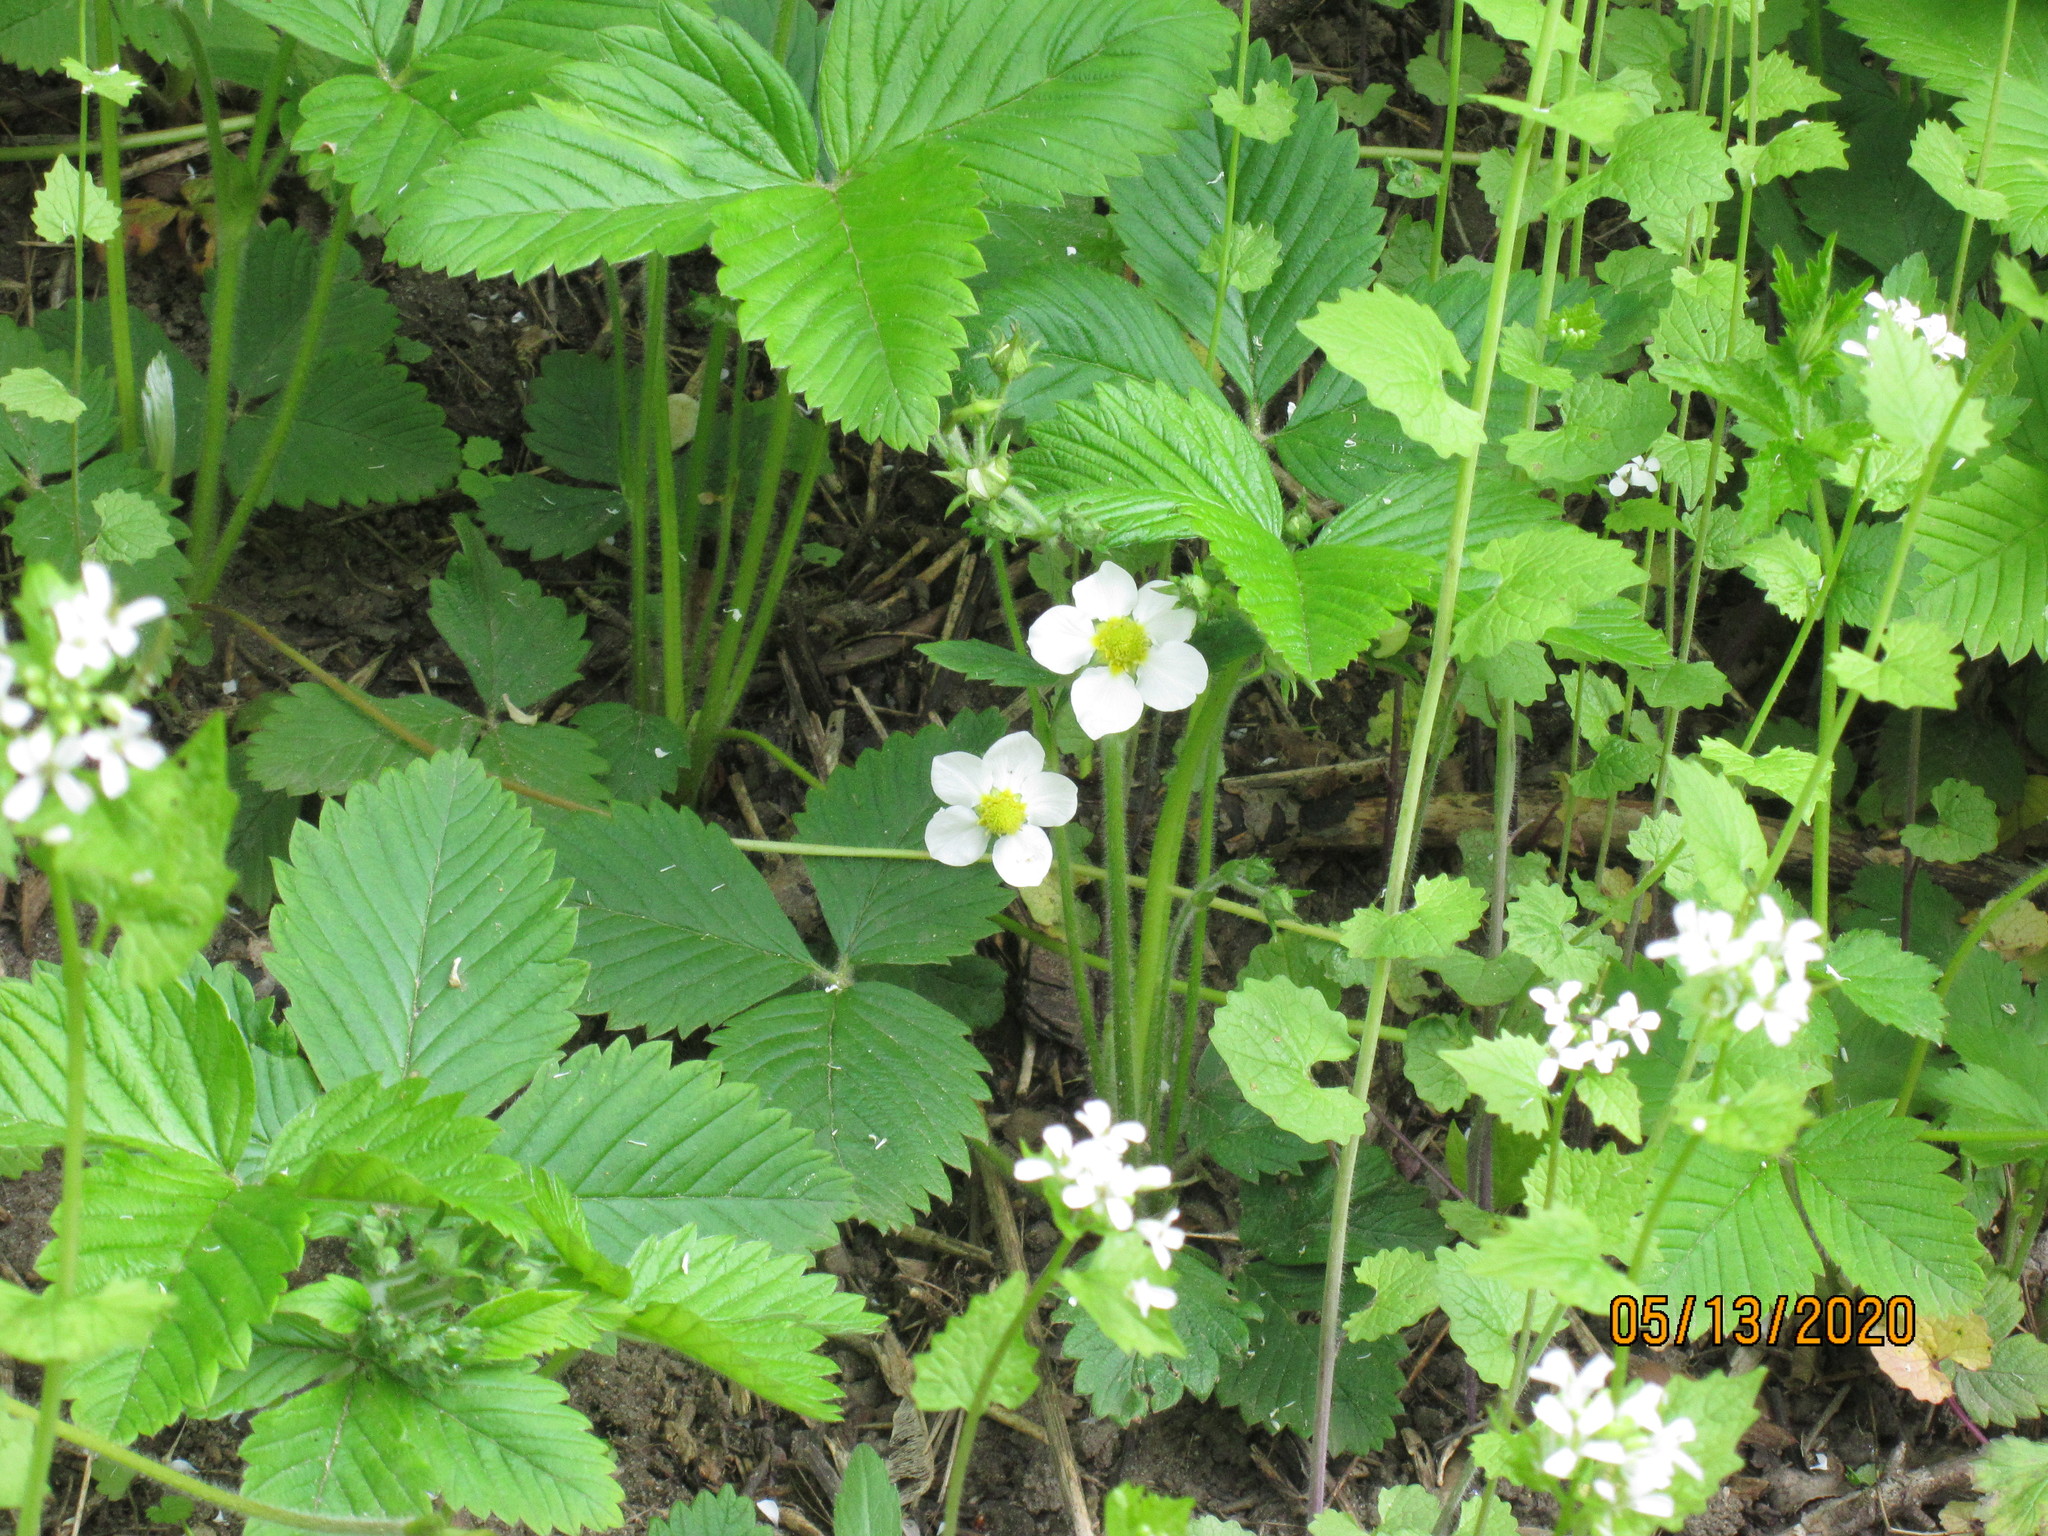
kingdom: Plantae
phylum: Tracheophyta
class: Magnoliopsida
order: Rosales
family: Rosaceae
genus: Fragaria
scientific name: Fragaria ananassa
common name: Garden strawberry
